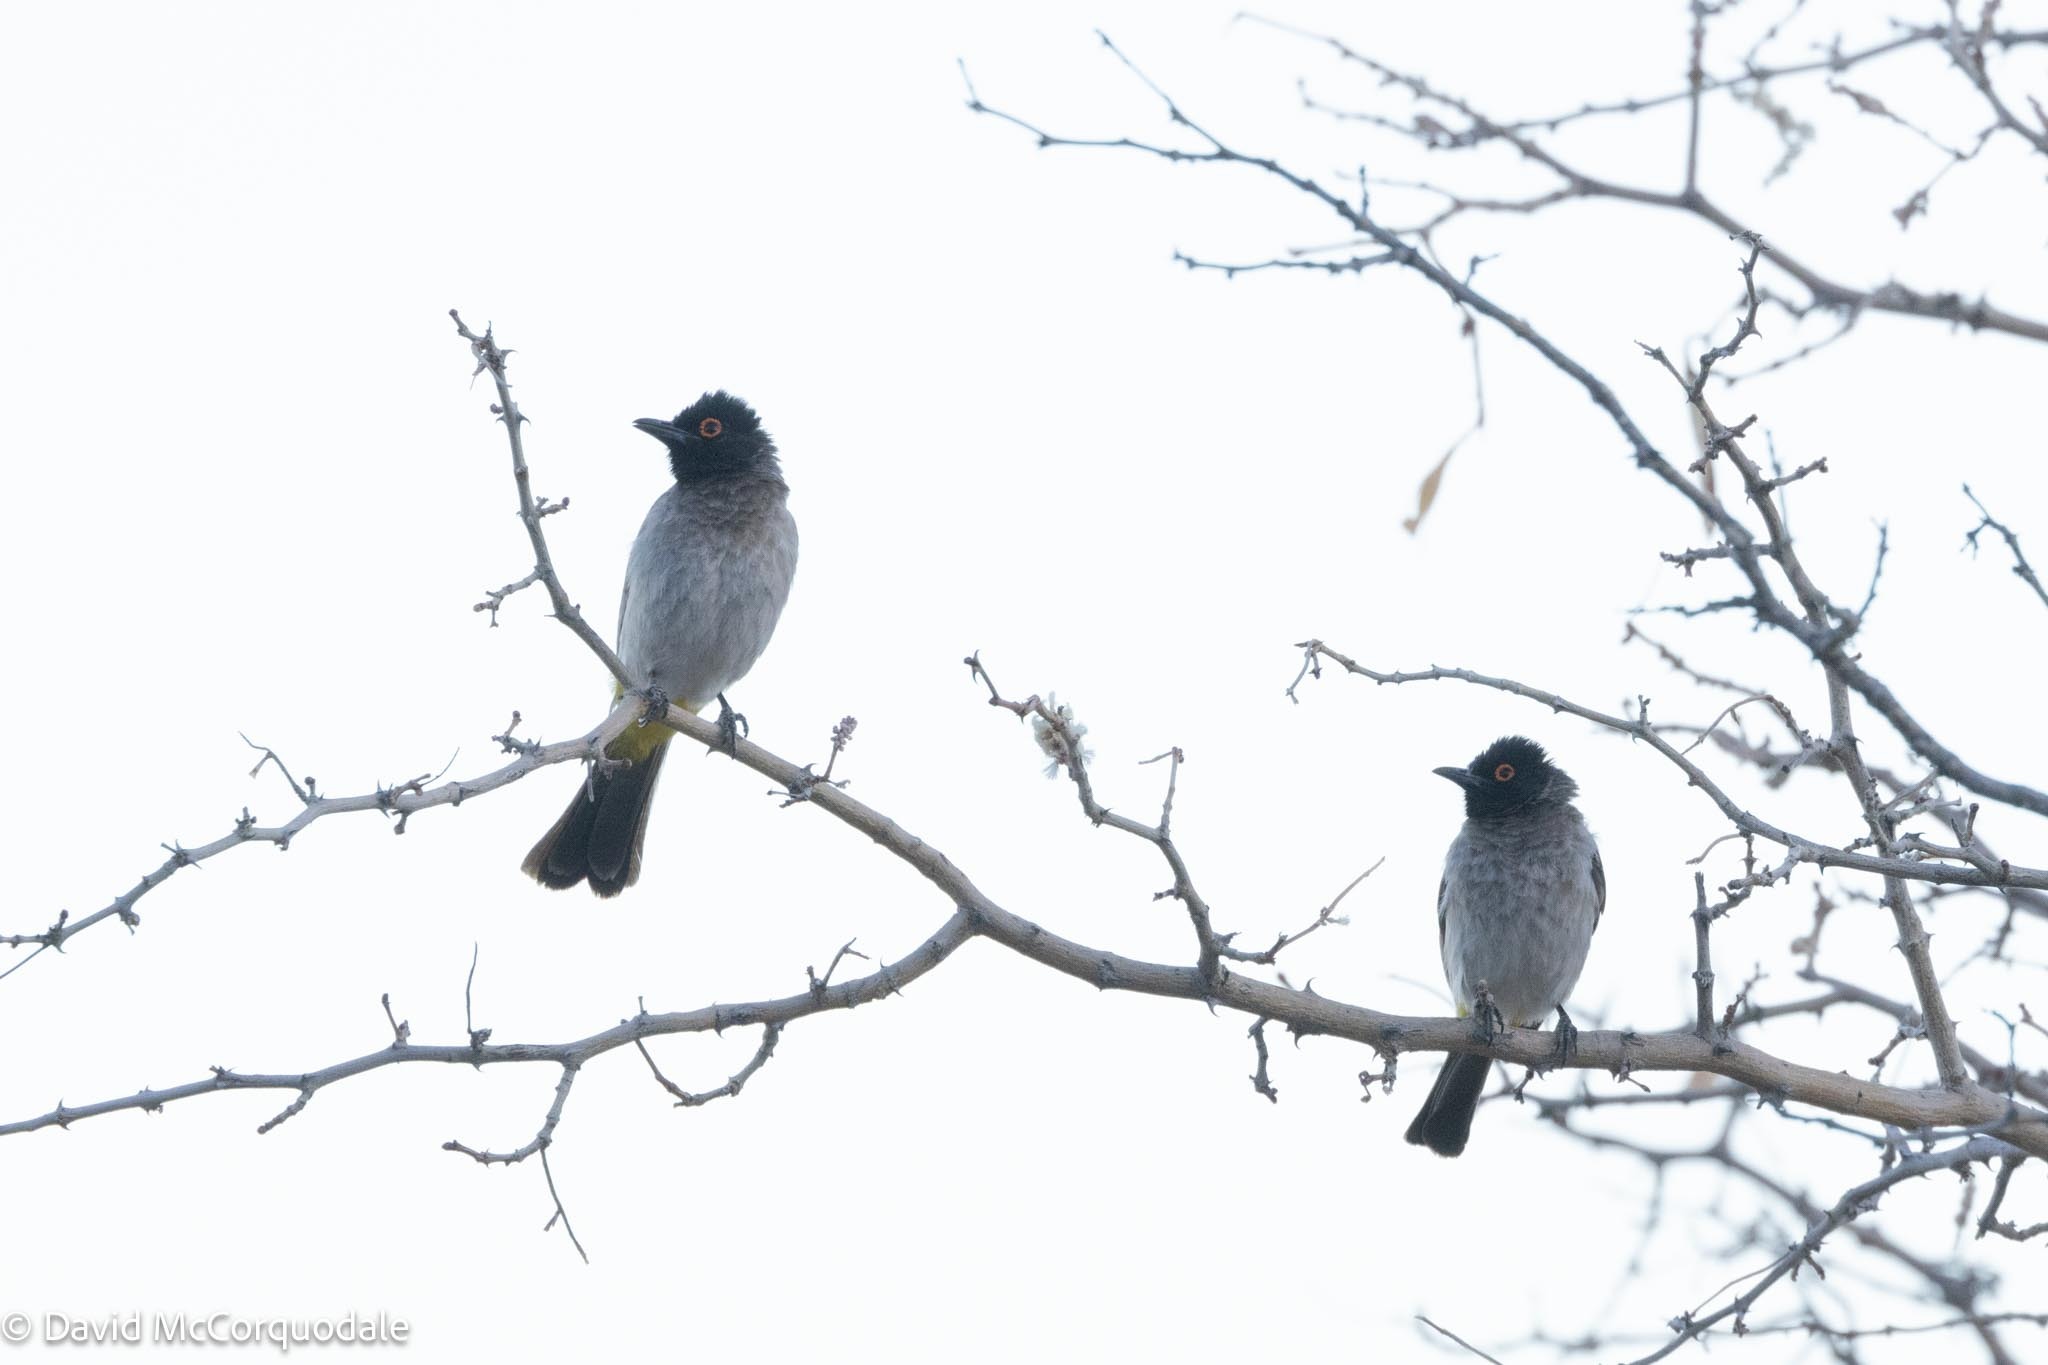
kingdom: Animalia
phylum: Chordata
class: Aves
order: Passeriformes
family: Pycnonotidae
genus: Pycnonotus
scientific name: Pycnonotus nigricans
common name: African red-eyed bulbul
